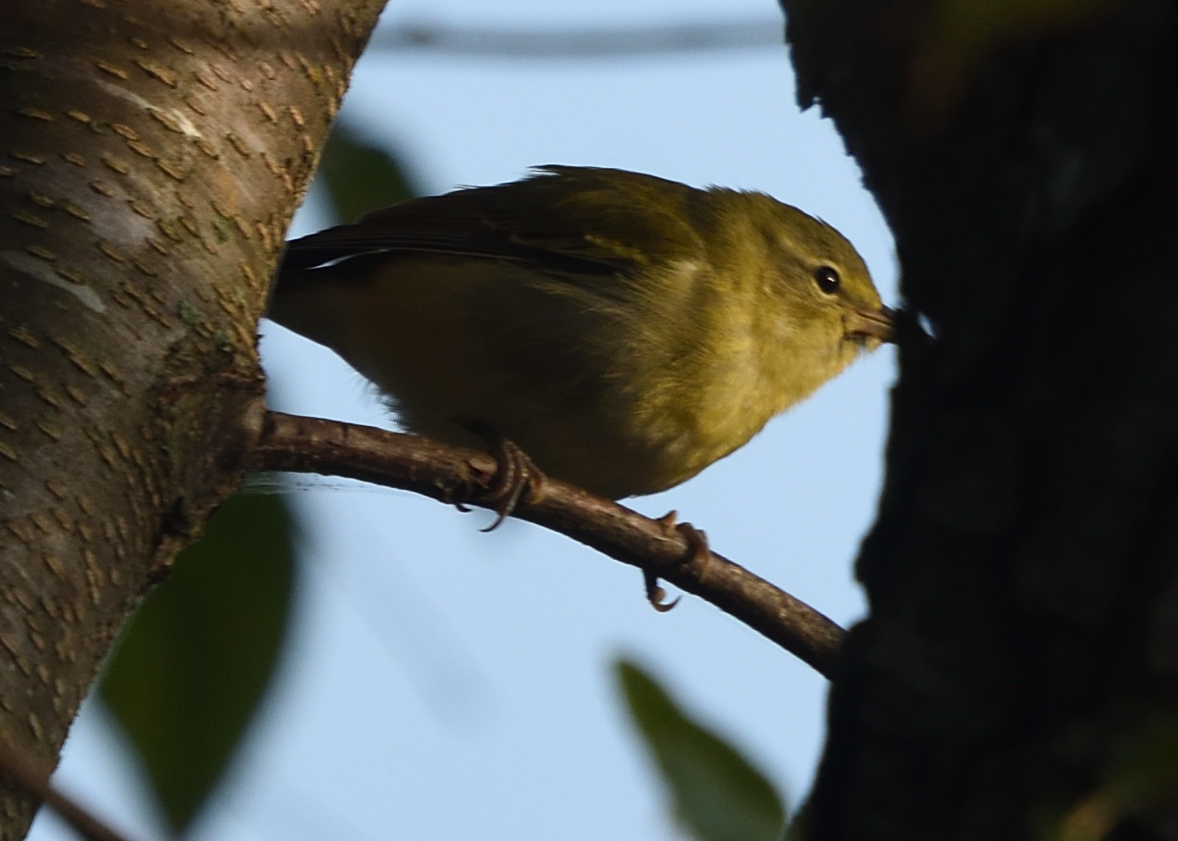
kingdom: Animalia
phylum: Chordata
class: Aves
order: Passeriformes
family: Parulidae
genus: Leiothlypis
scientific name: Leiothlypis peregrina
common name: Tennessee warbler
